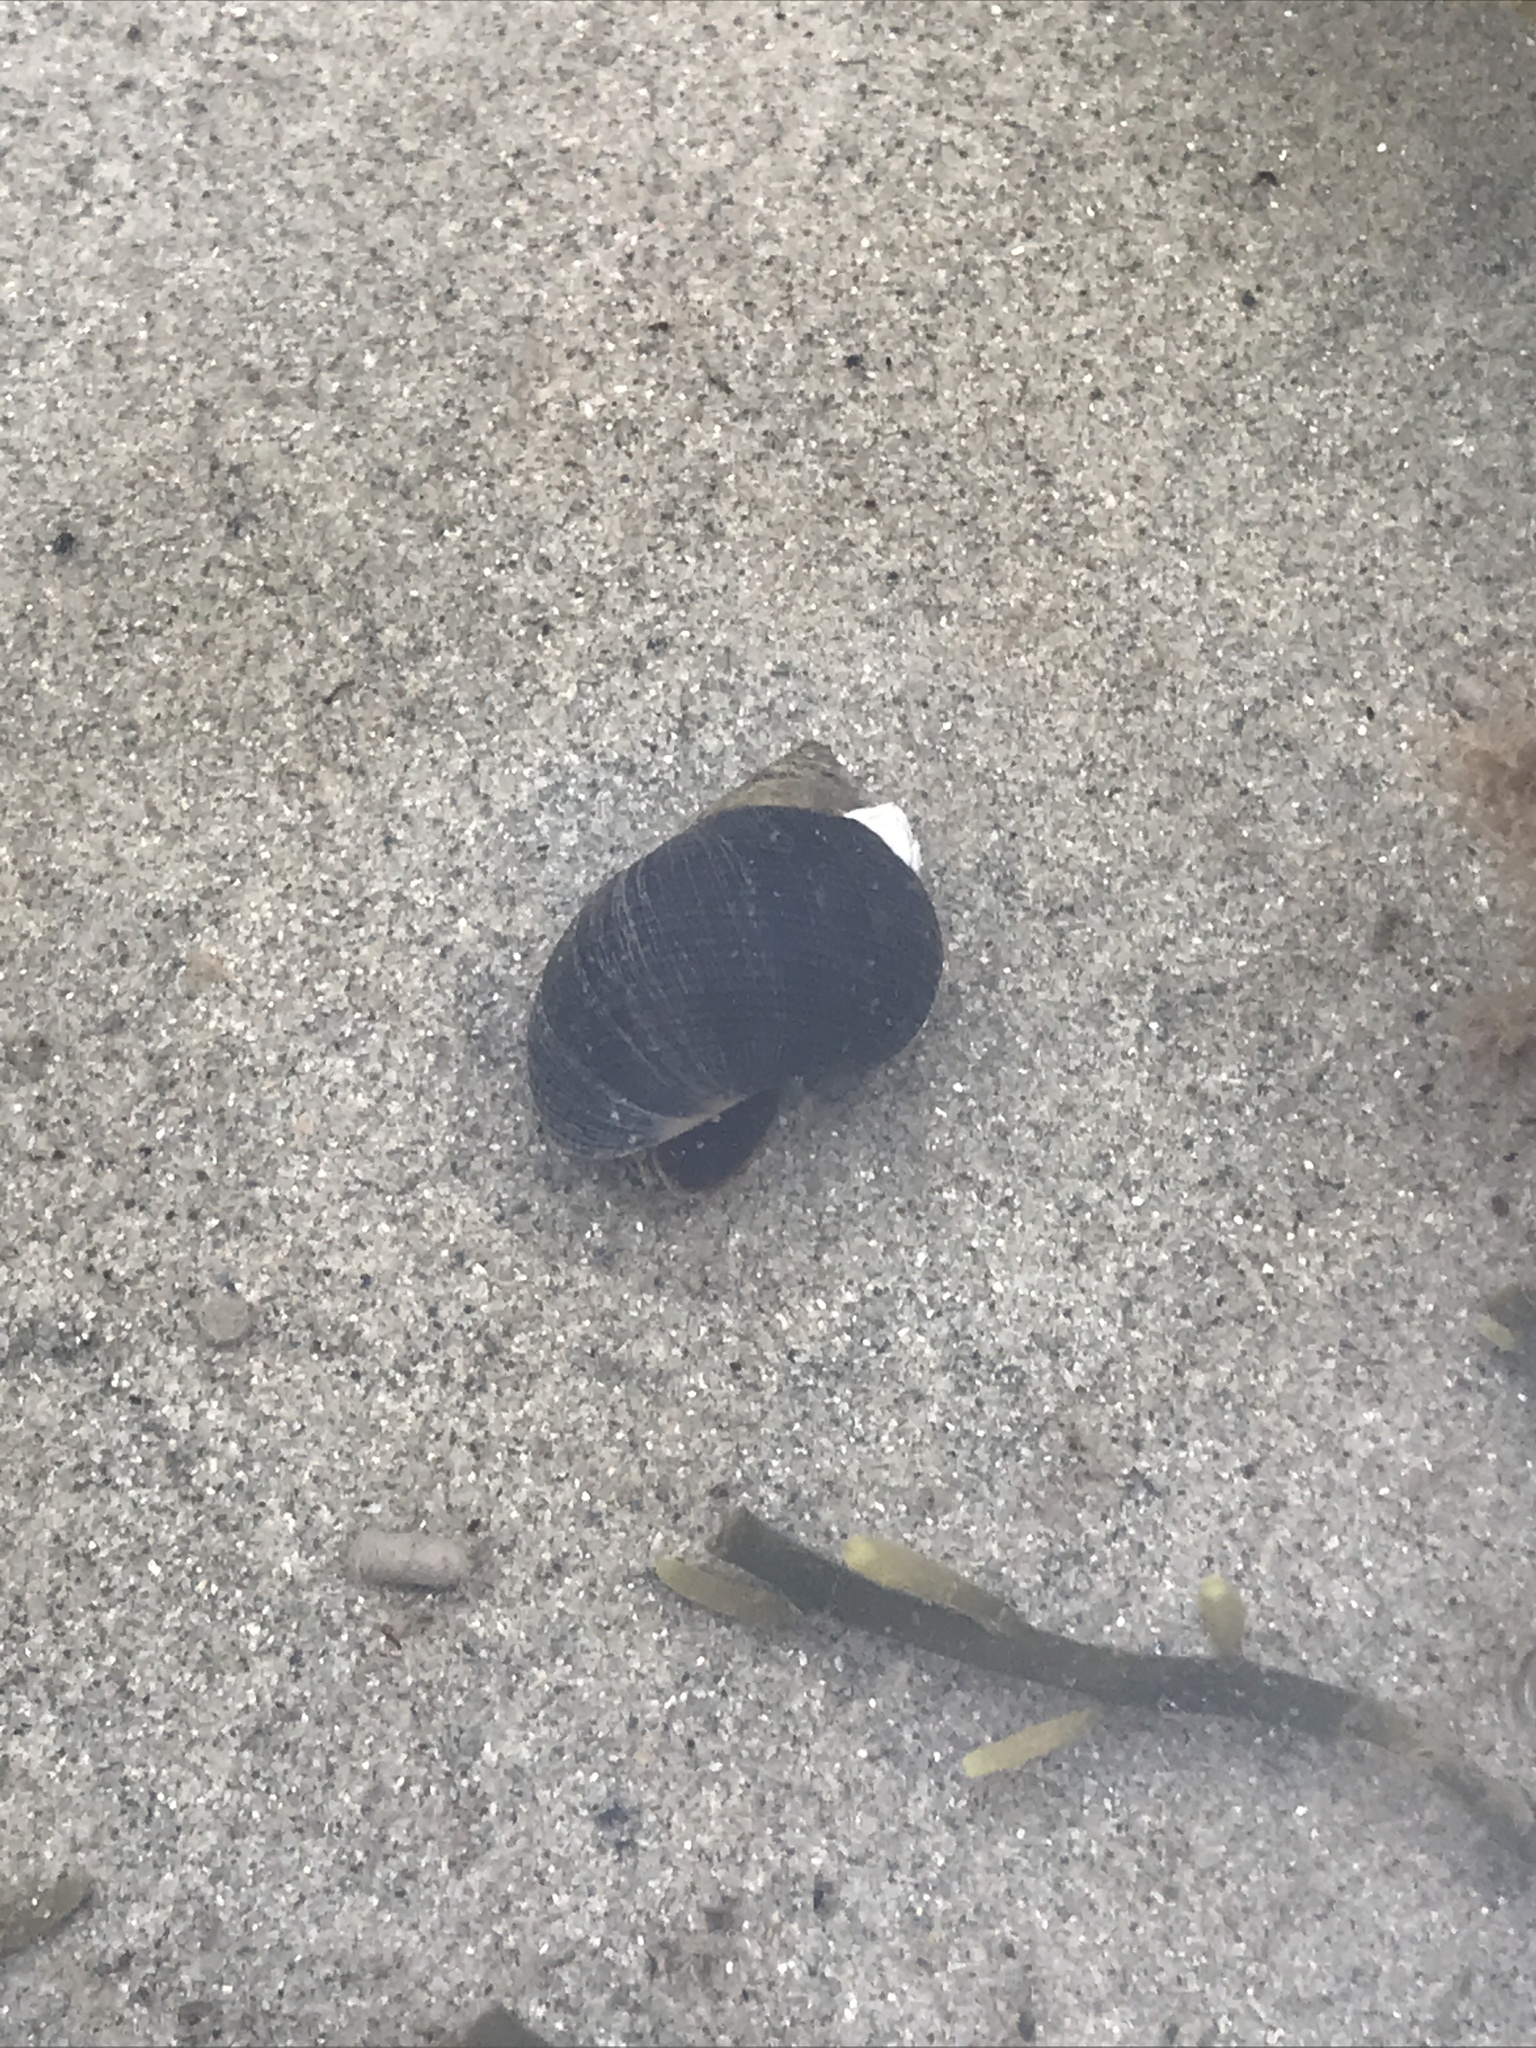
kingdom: Animalia
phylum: Mollusca
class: Gastropoda
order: Littorinimorpha
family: Littorinidae
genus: Littorina
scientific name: Littorina littorea
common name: Common periwinkle
